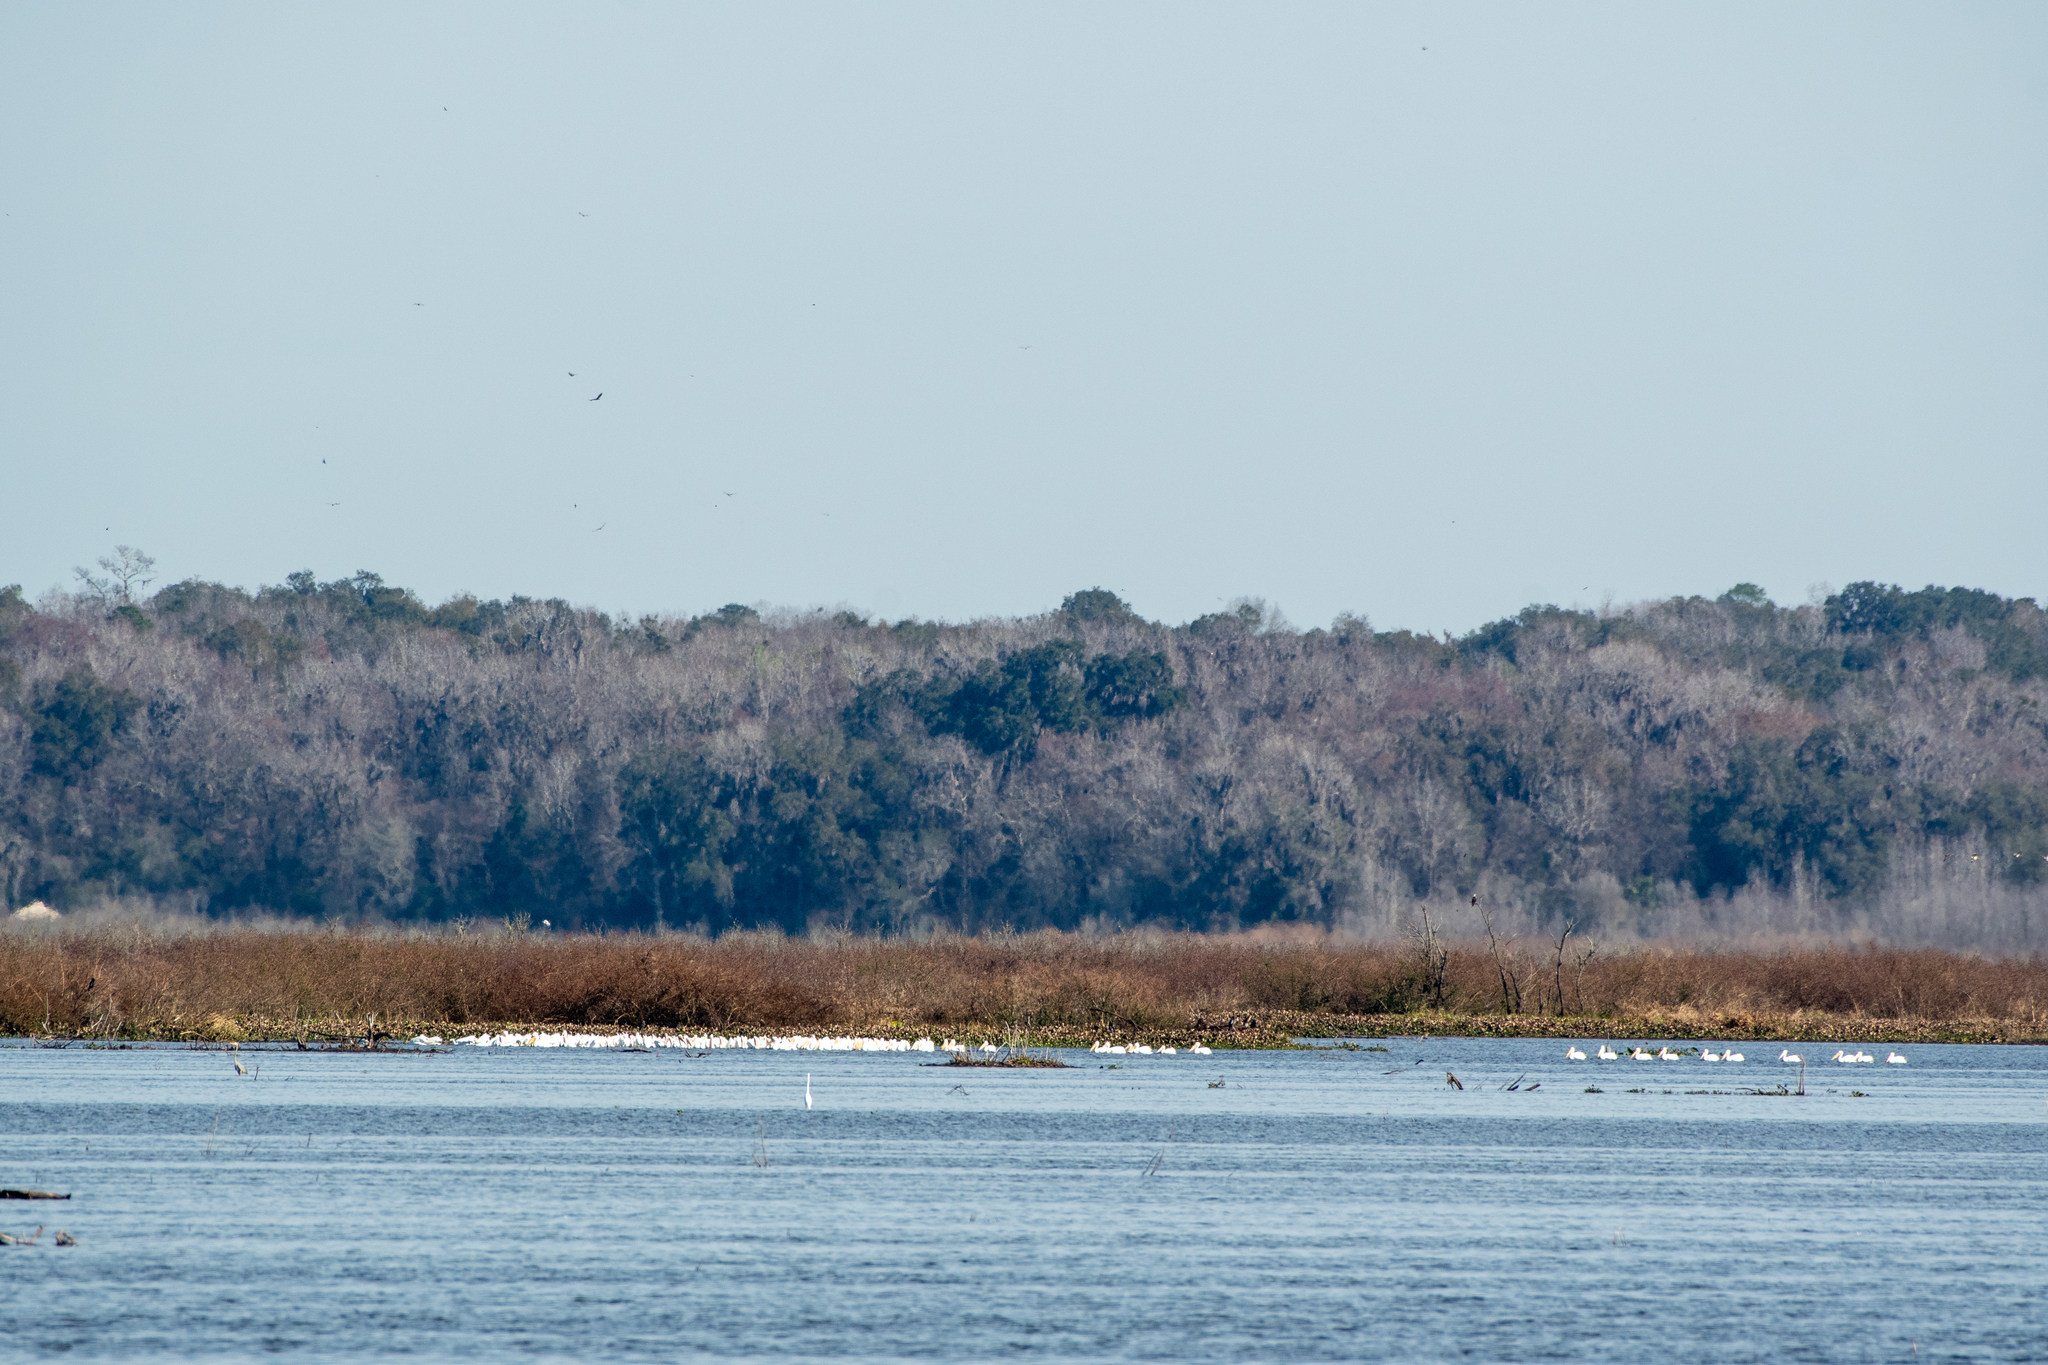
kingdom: Animalia
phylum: Chordata
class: Aves
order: Pelecaniformes
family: Pelecanidae
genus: Pelecanus
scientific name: Pelecanus erythrorhynchos
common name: American white pelican
